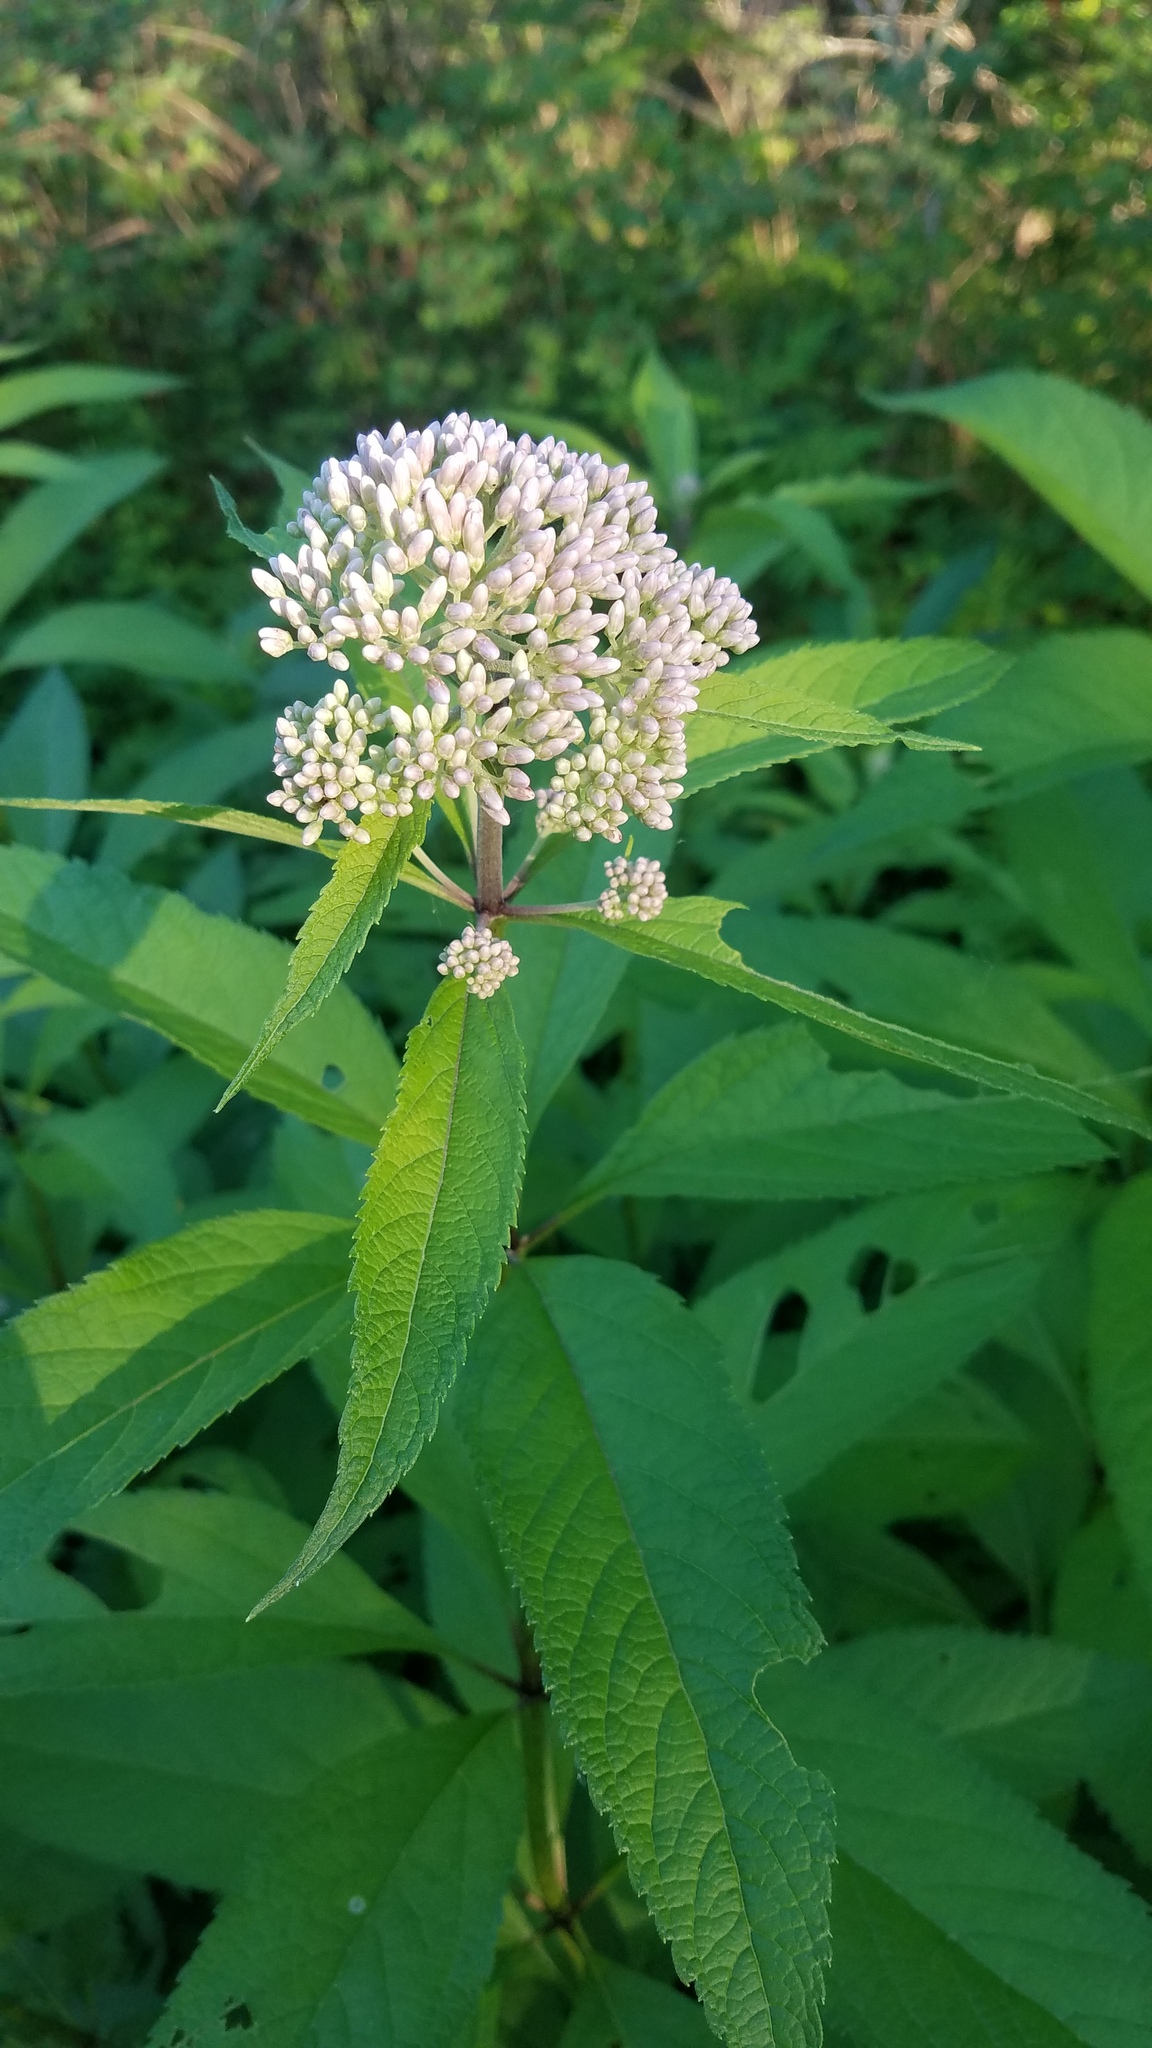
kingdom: Plantae
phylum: Tracheophyta
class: Magnoliopsida
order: Asterales
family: Asteraceae
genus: Eutrochium
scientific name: Eutrochium purpureum
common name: Gravelroot
